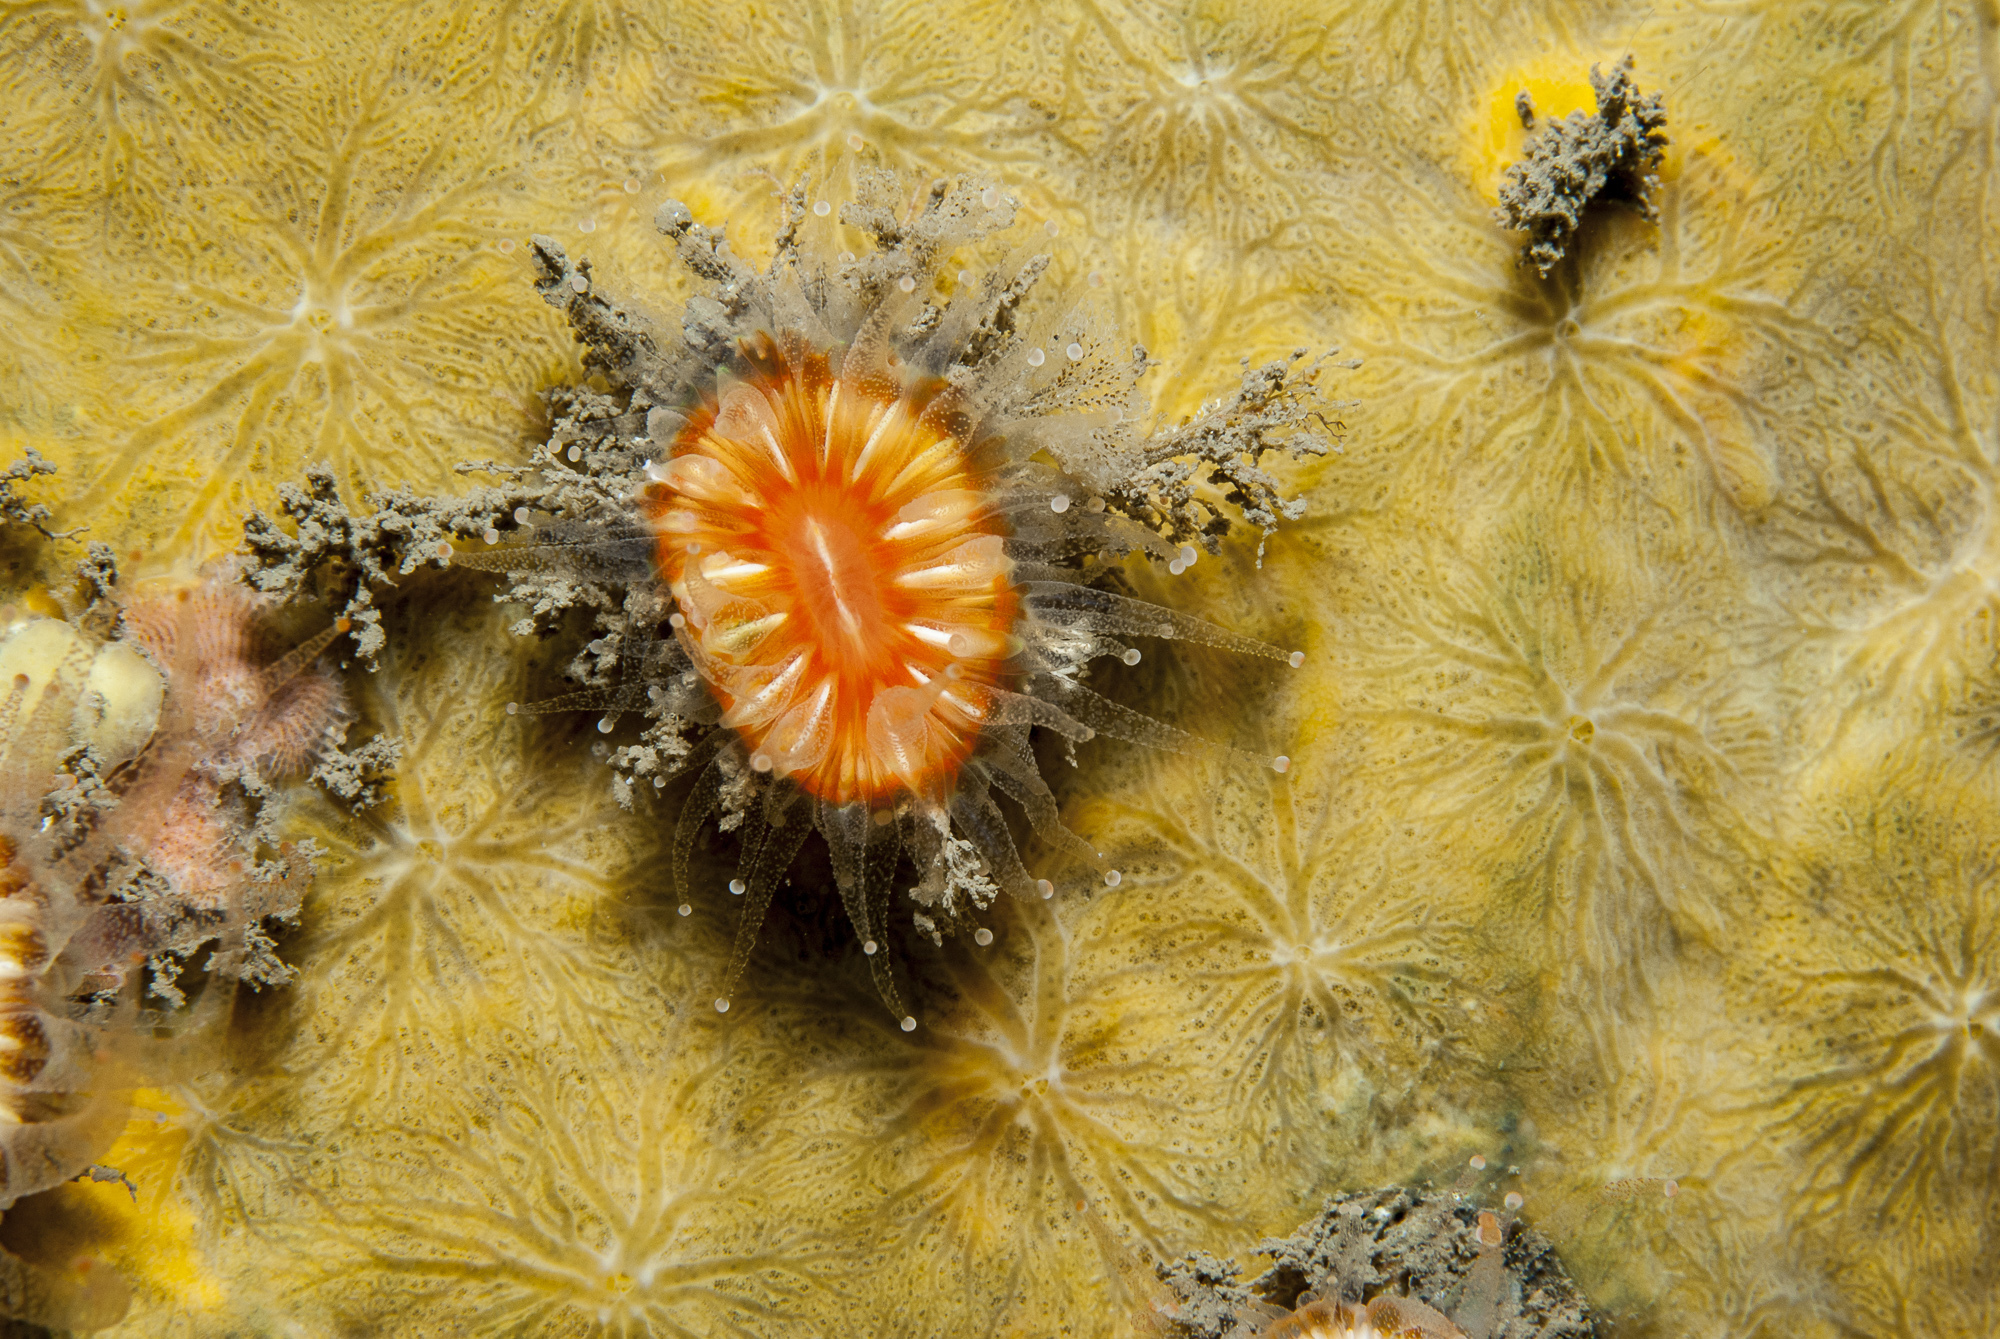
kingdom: Animalia
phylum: Porifera
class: Demospongiae
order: Poecilosclerida
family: Hymedesmiidae
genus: Hymedesmia
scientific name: Hymedesmia stellifera
